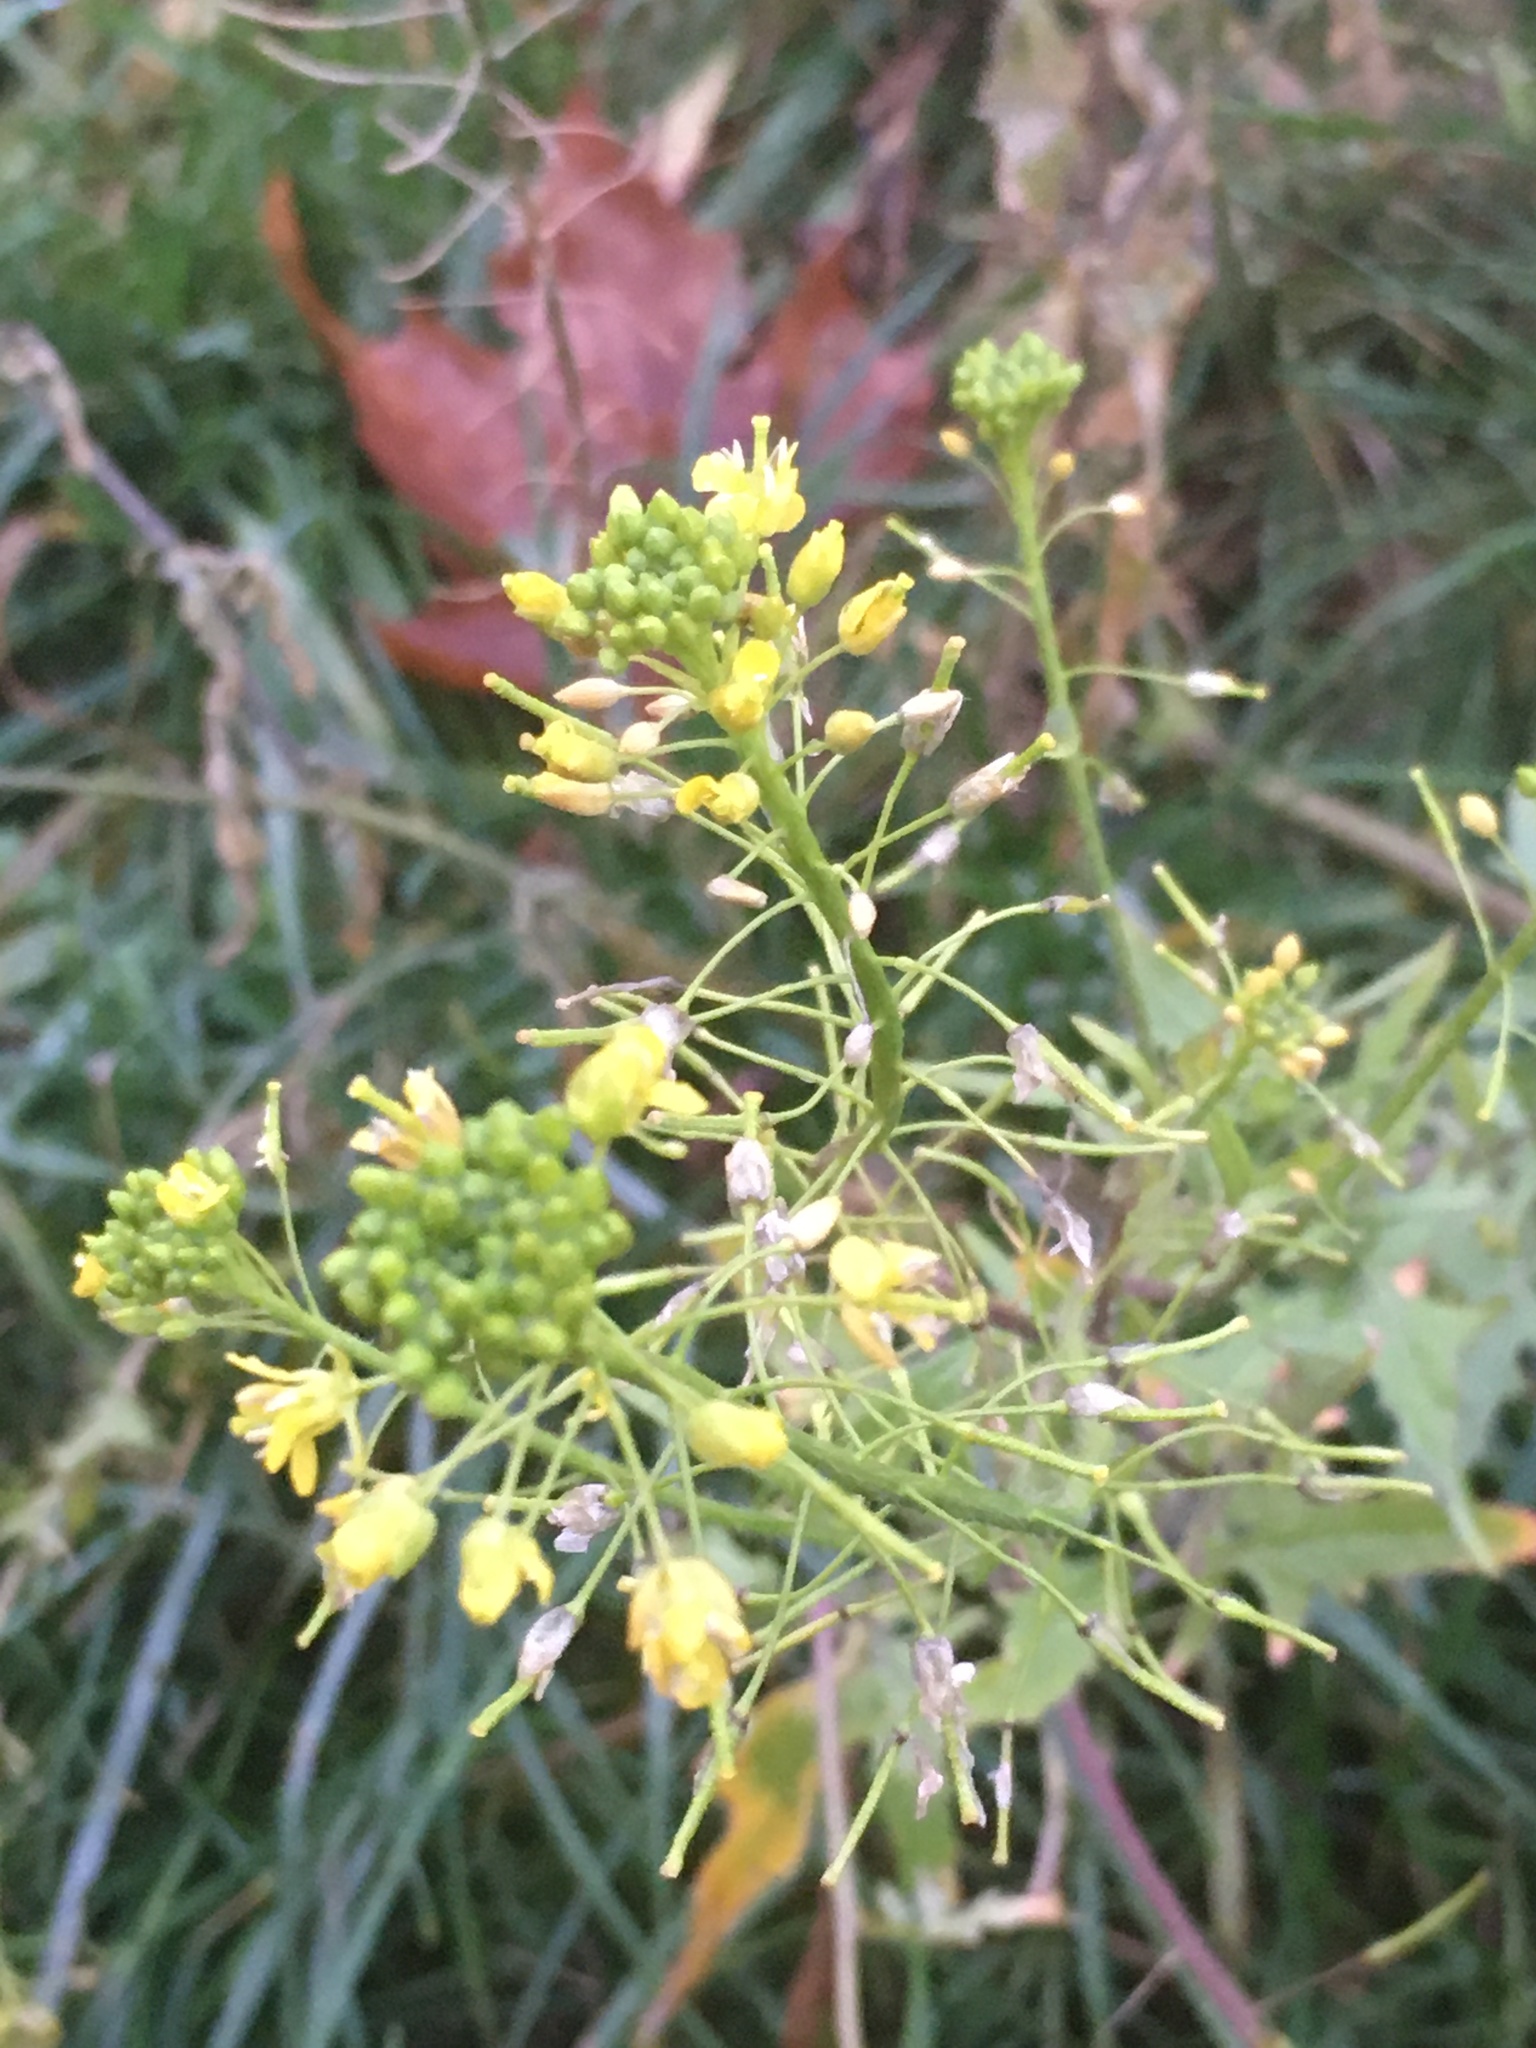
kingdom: Plantae
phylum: Tracheophyta
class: Magnoliopsida
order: Brassicales
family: Brassicaceae
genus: Rorippa
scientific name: Rorippa palustris
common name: Marsh yellow-cress
